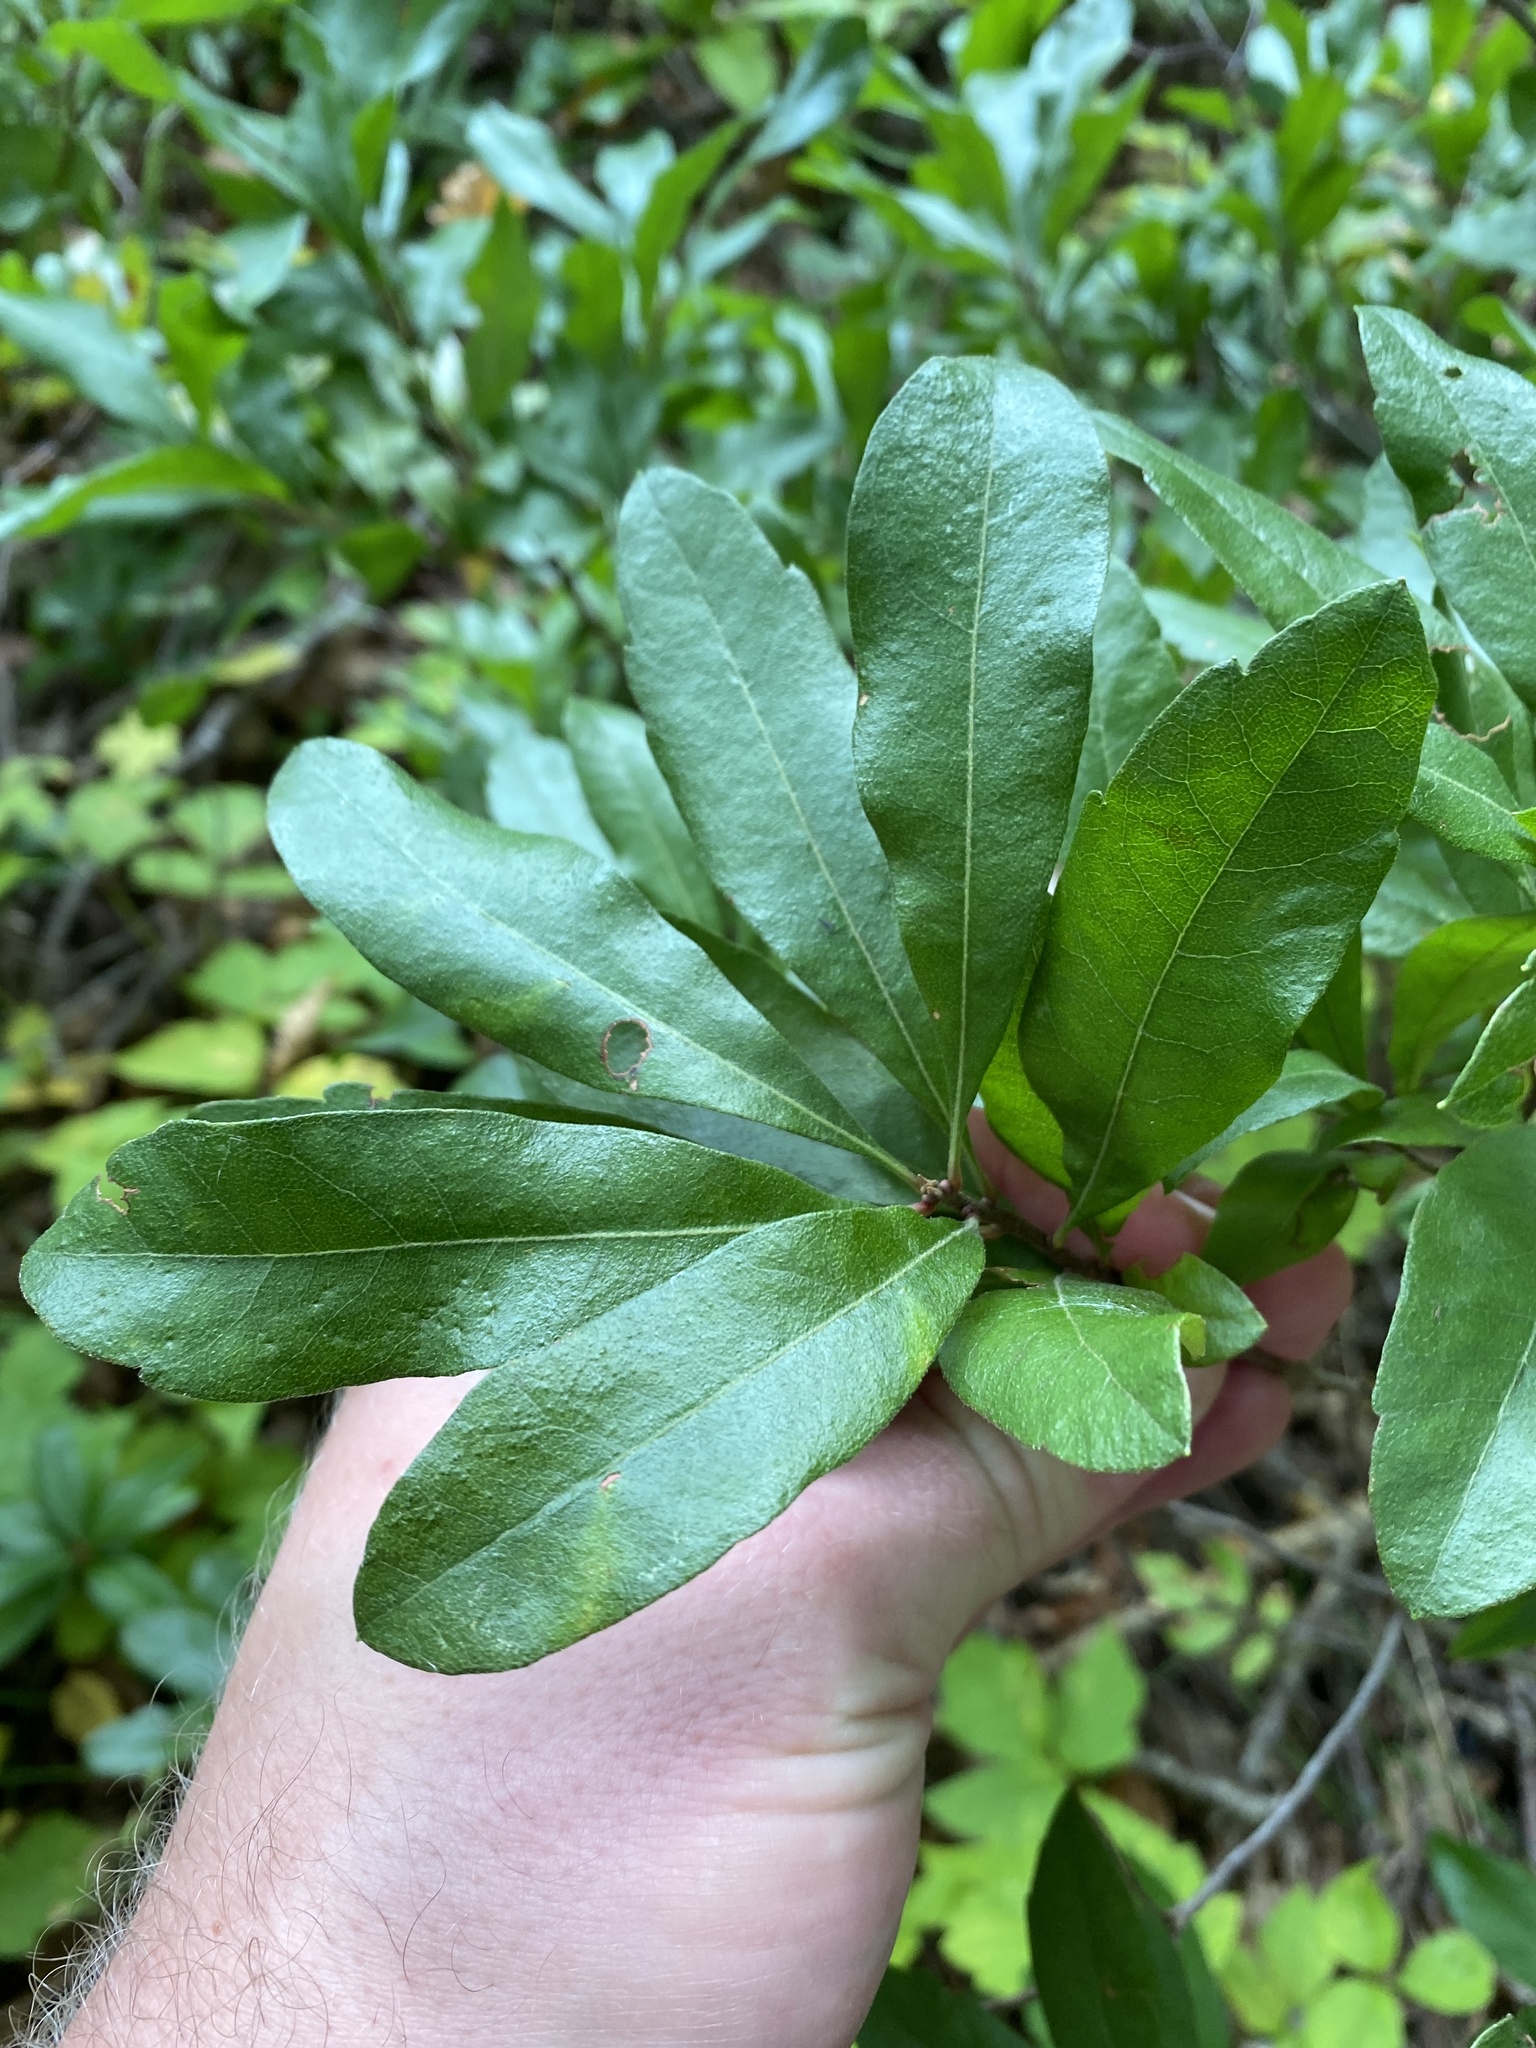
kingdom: Plantae
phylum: Tracheophyta
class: Magnoliopsida
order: Fagales
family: Myricaceae
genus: Morella
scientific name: Morella pensylvanica
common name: Northern bayberry
